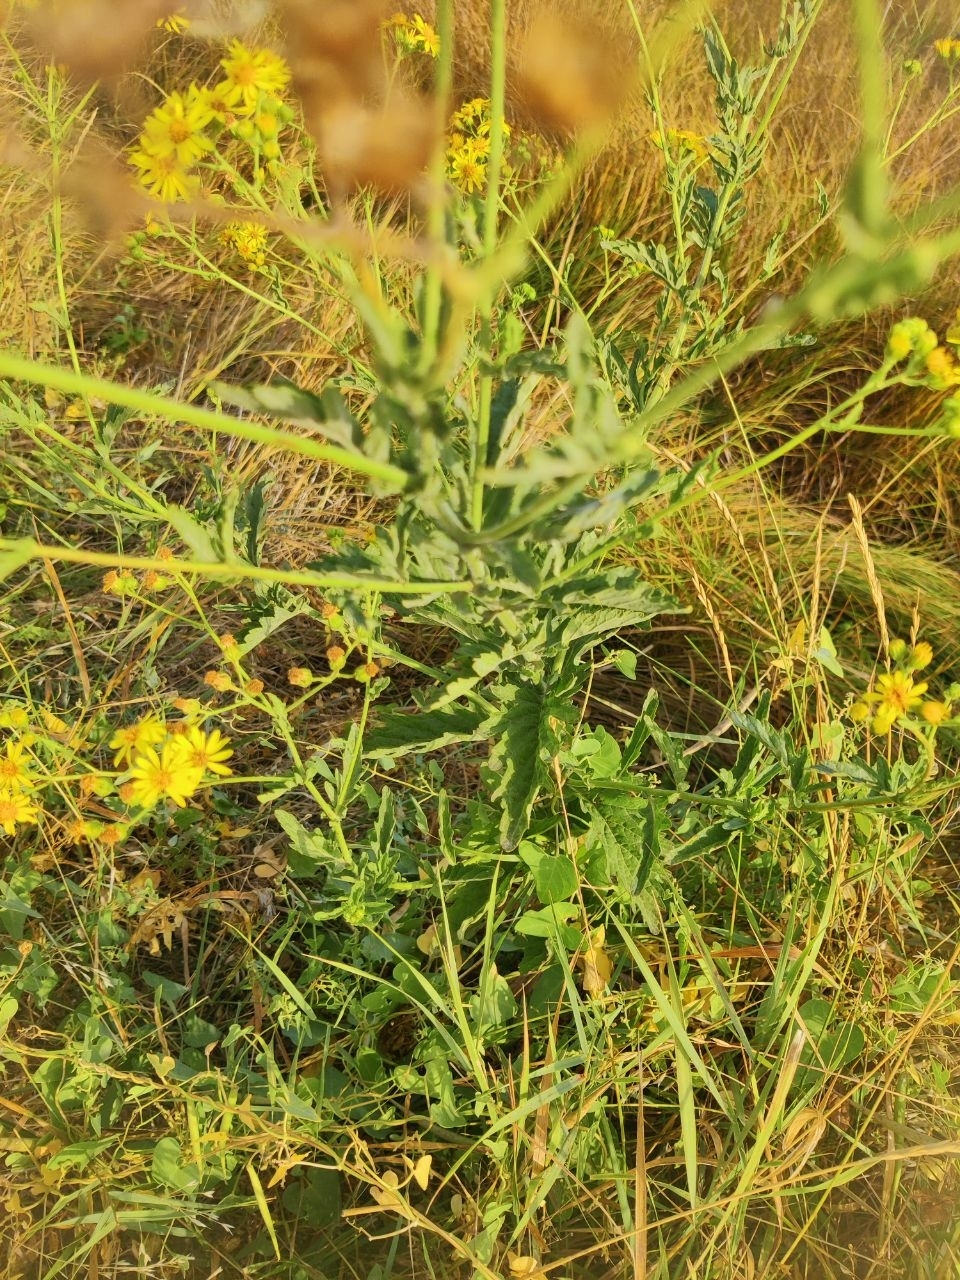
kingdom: Plantae
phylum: Tracheophyta
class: Magnoliopsida
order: Asterales
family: Asteraceae
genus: Jacobaea
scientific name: Jacobaea erucifolia
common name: Hoary ragwort
